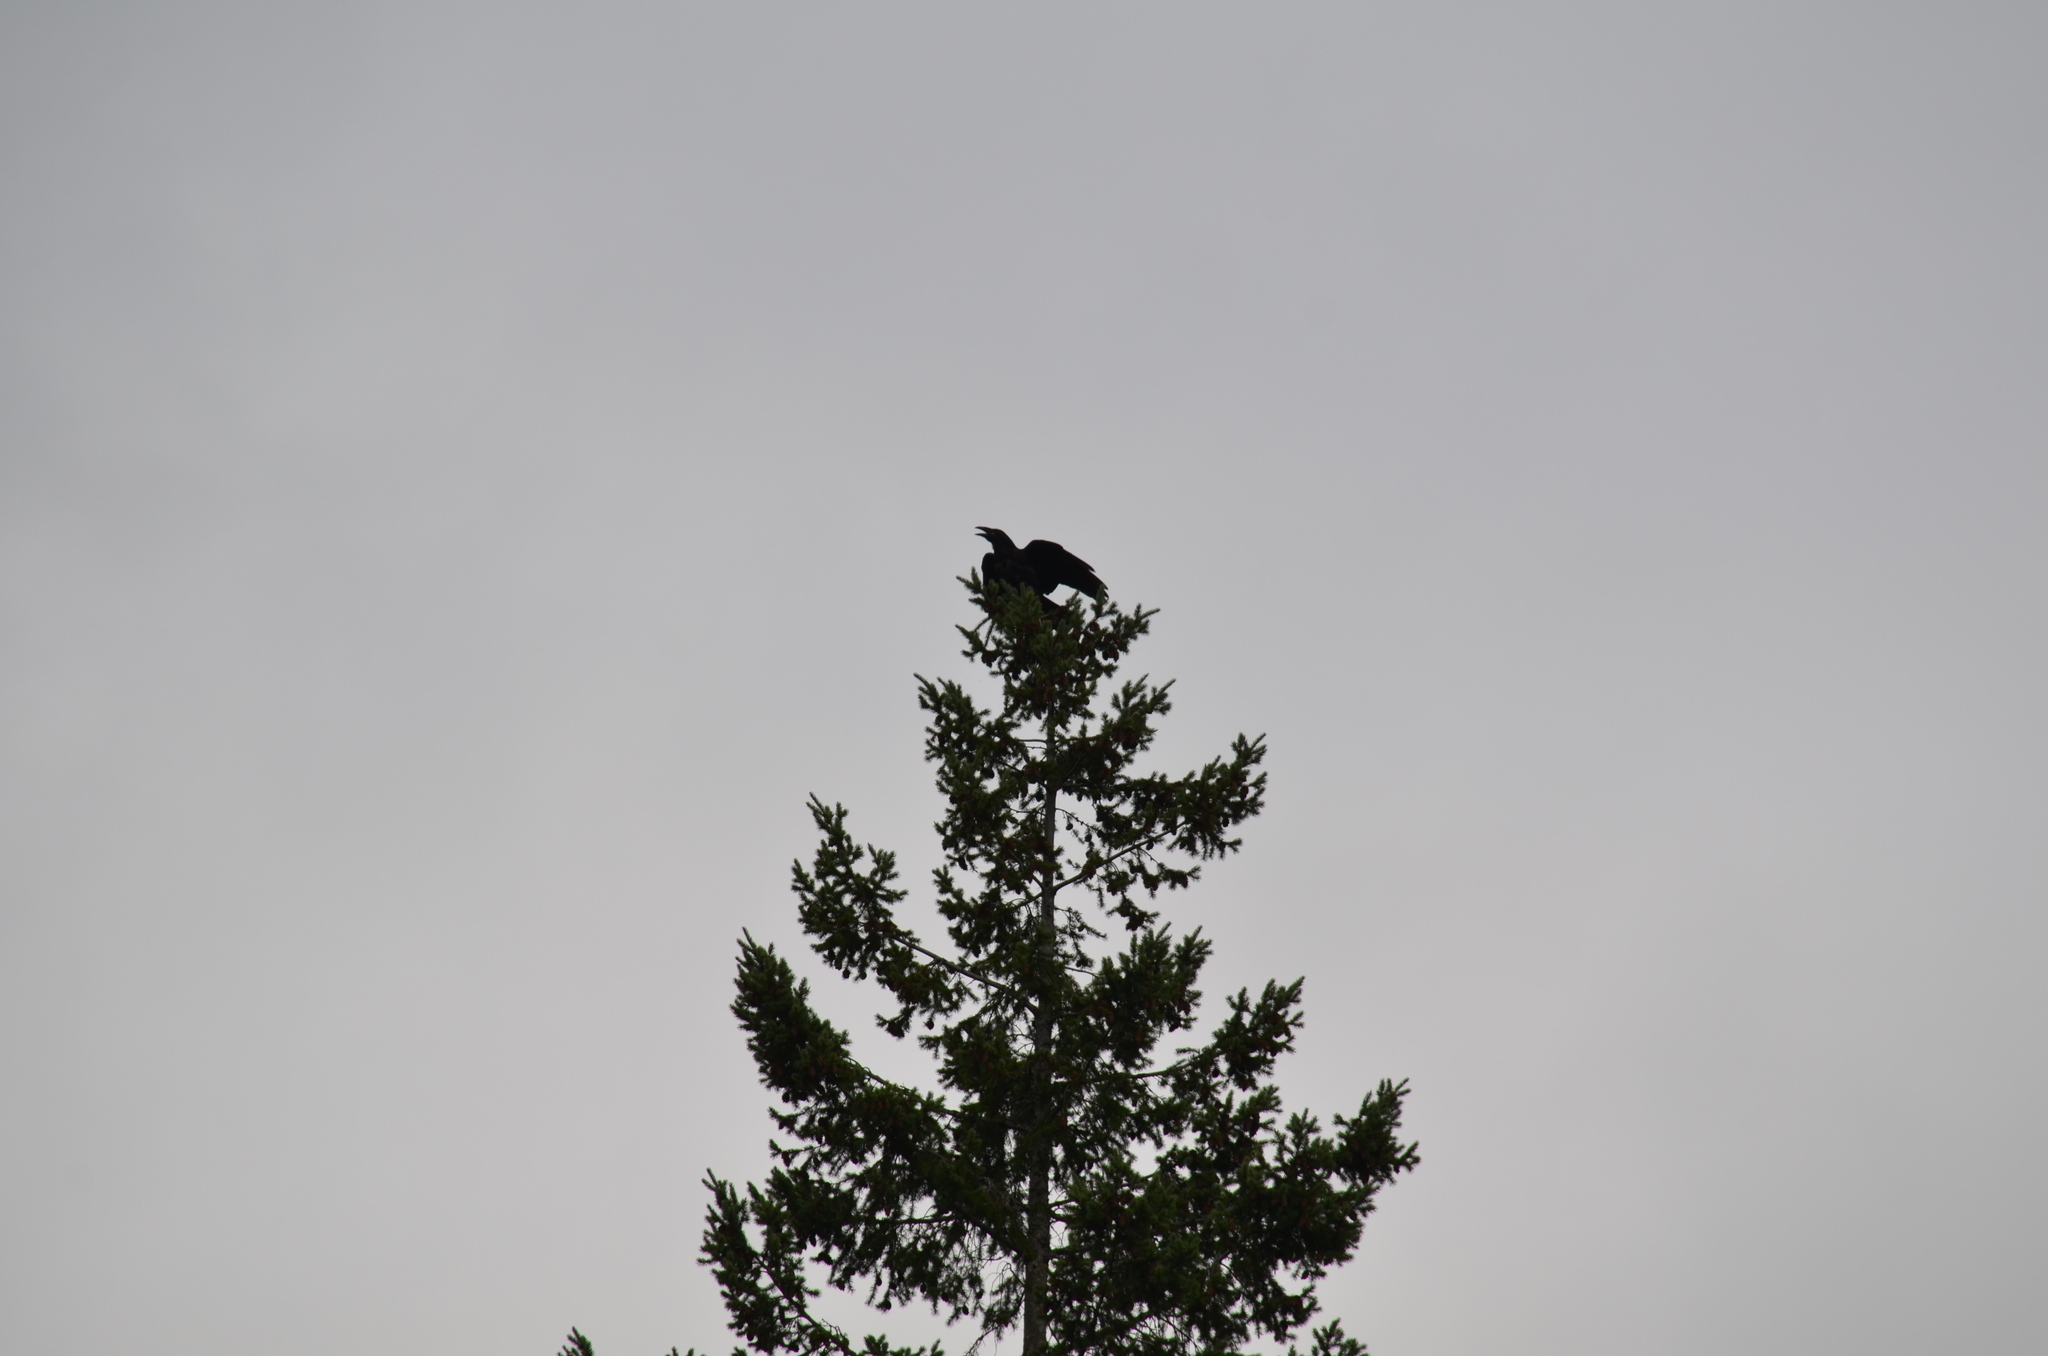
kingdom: Animalia
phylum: Chordata
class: Aves
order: Passeriformes
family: Corvidae
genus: Corvus
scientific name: Corvus corax
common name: Common raven
